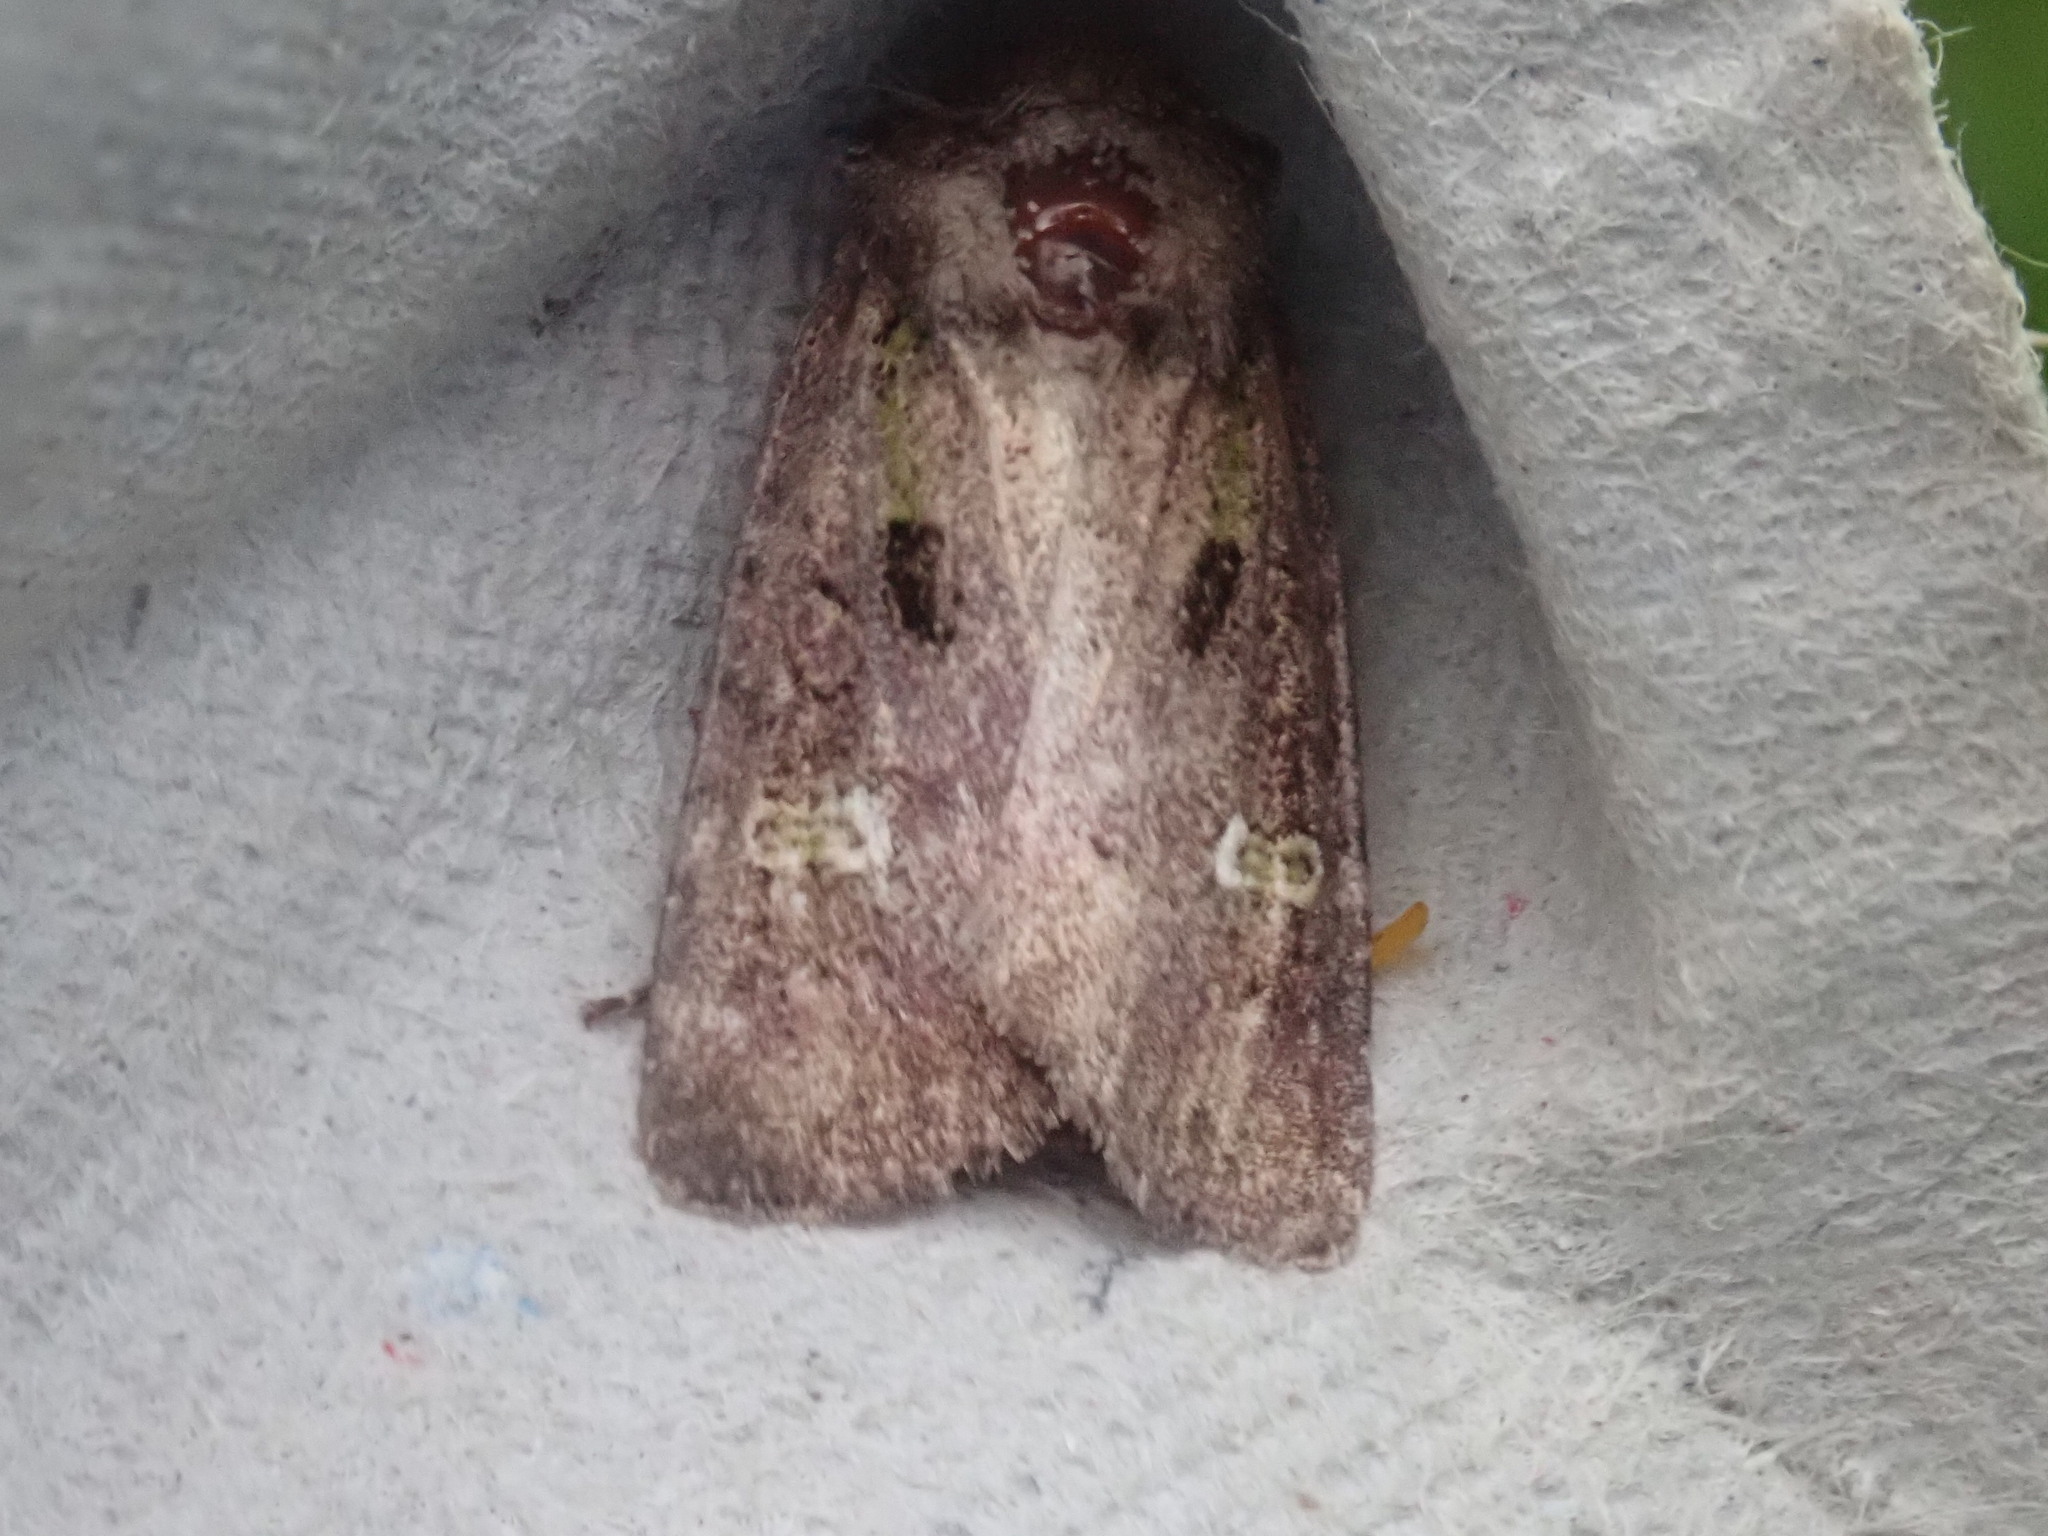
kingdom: Animalia
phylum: Arthropoda
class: Insecta
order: Lepidoptera
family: Noctuidae
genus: Lacinipolia
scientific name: Lacinipolia renigera
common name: Kidney-spotted minor
